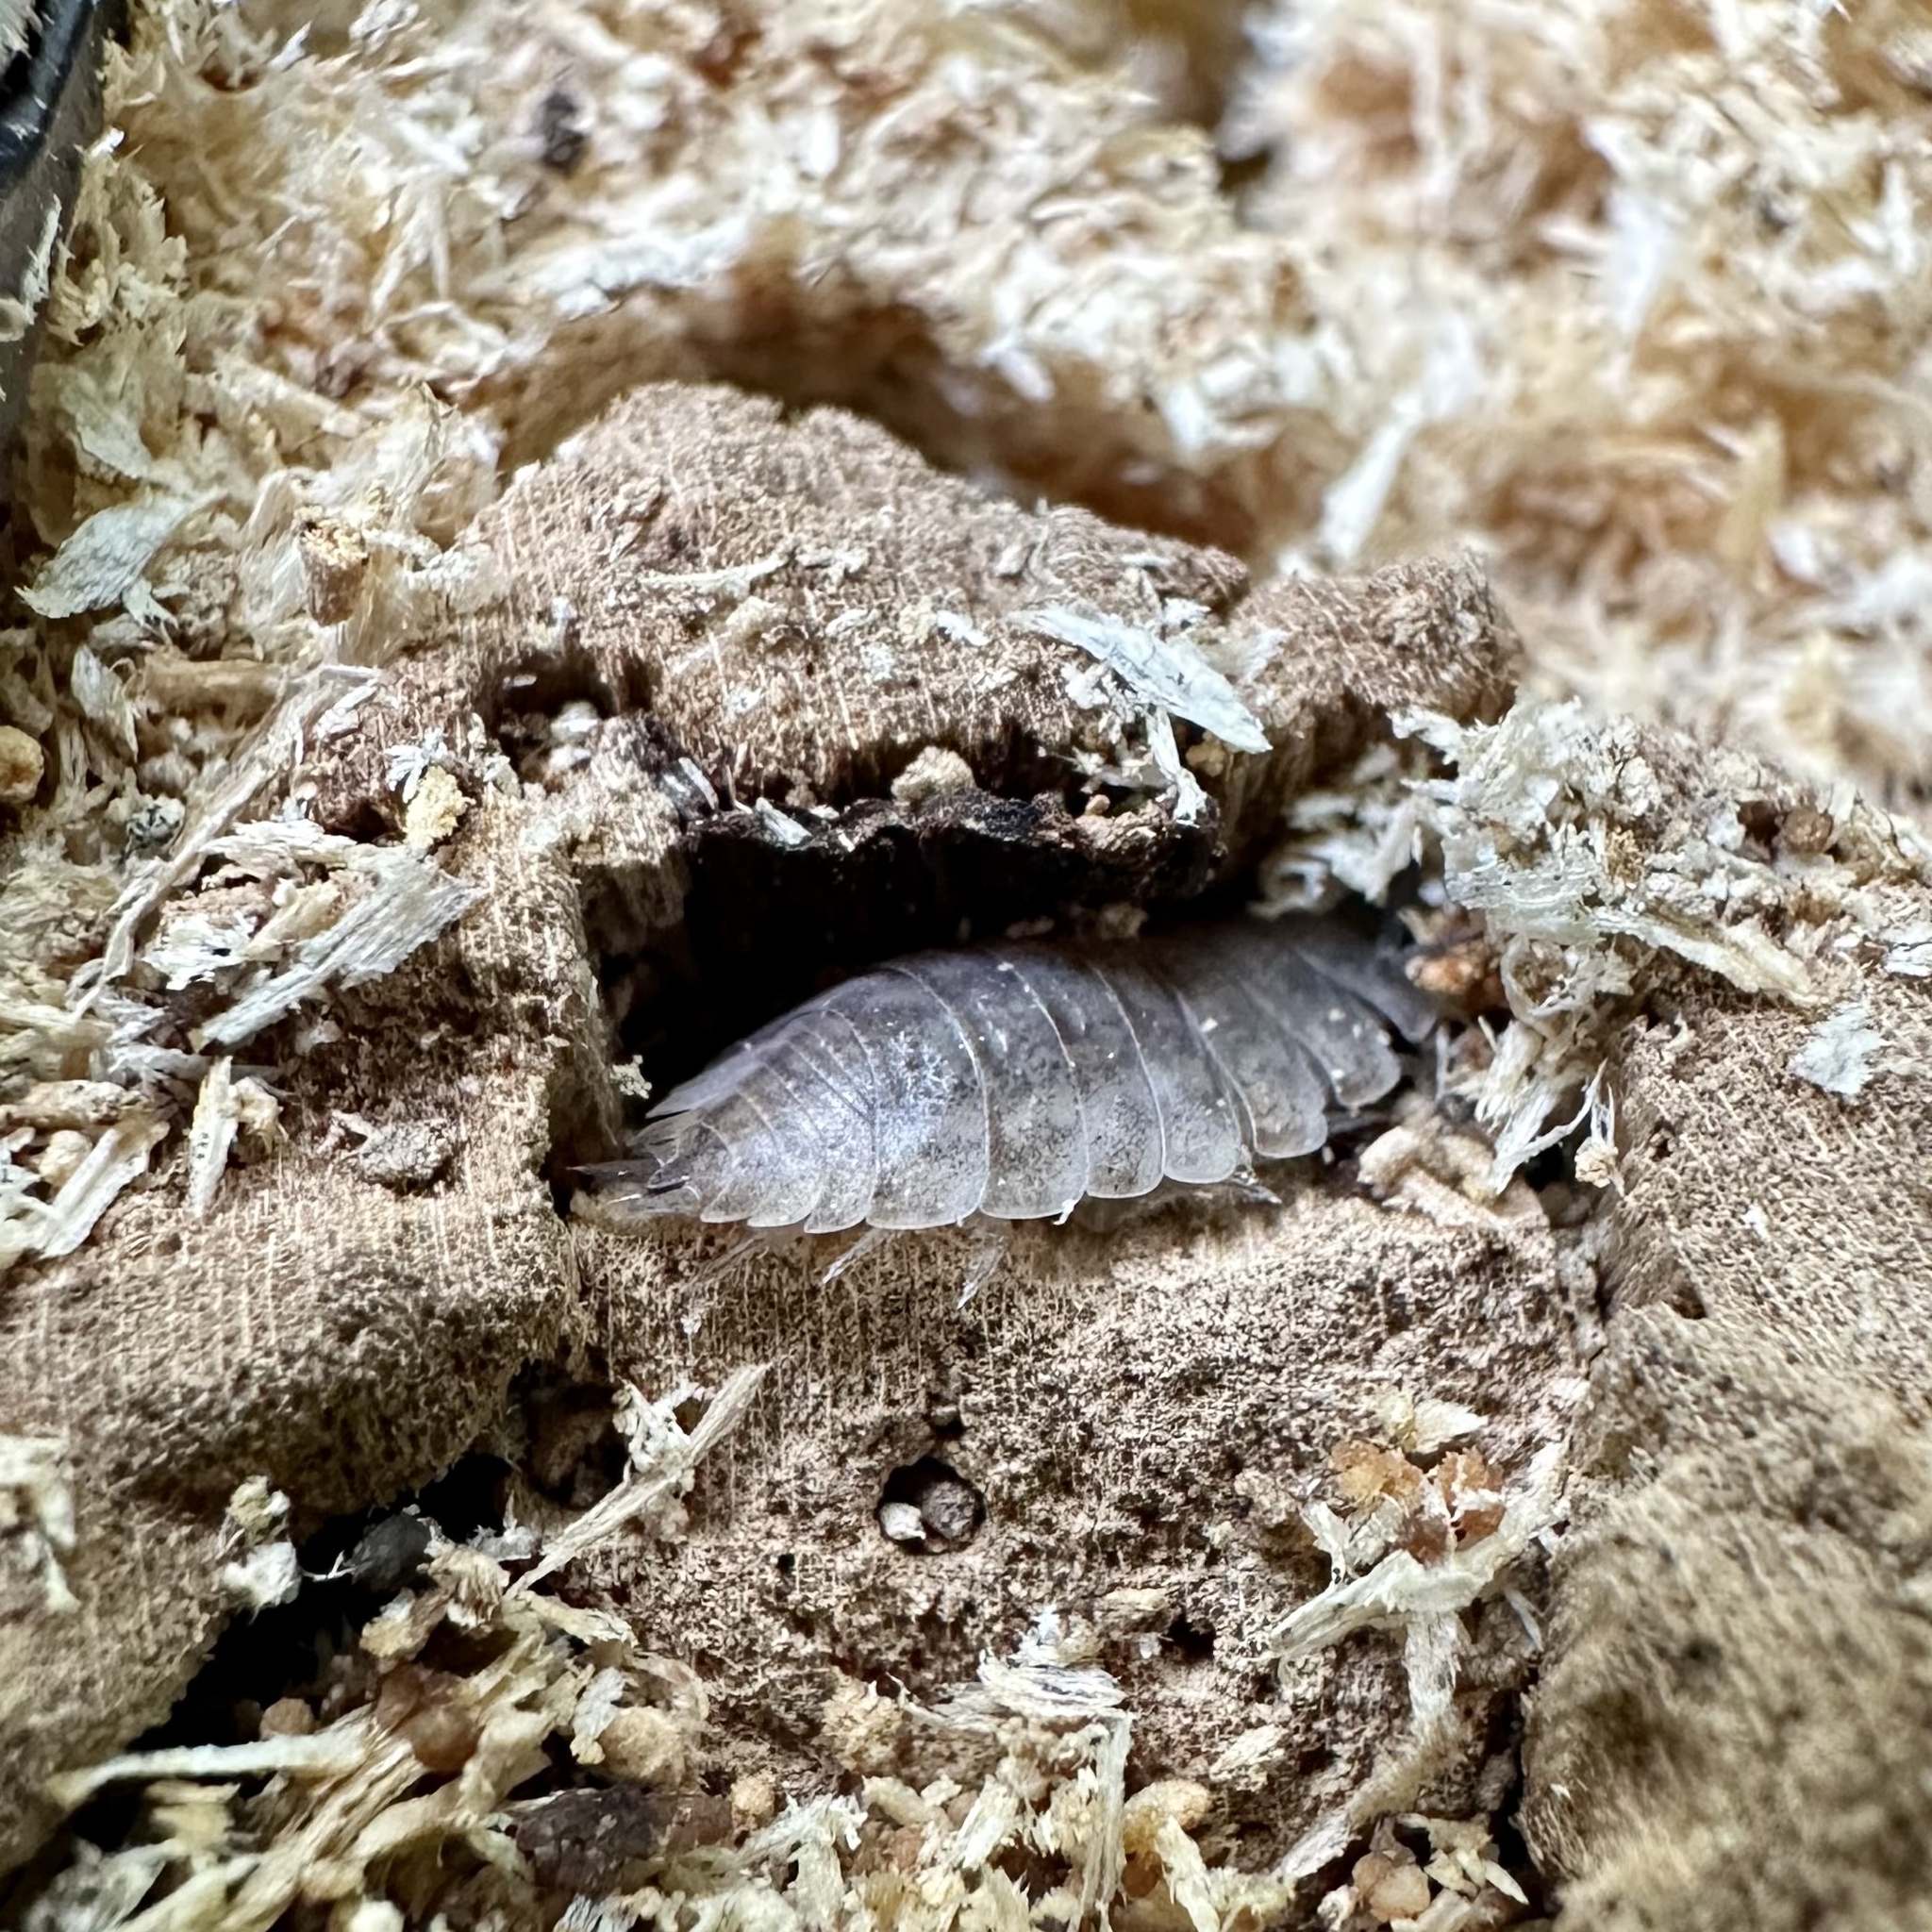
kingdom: Animalia
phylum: Arthropoda
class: Malacostraca
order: Isopoda
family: Oniscidae
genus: Oniscus
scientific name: Oniscus asellus
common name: Common shiny woodlouse
